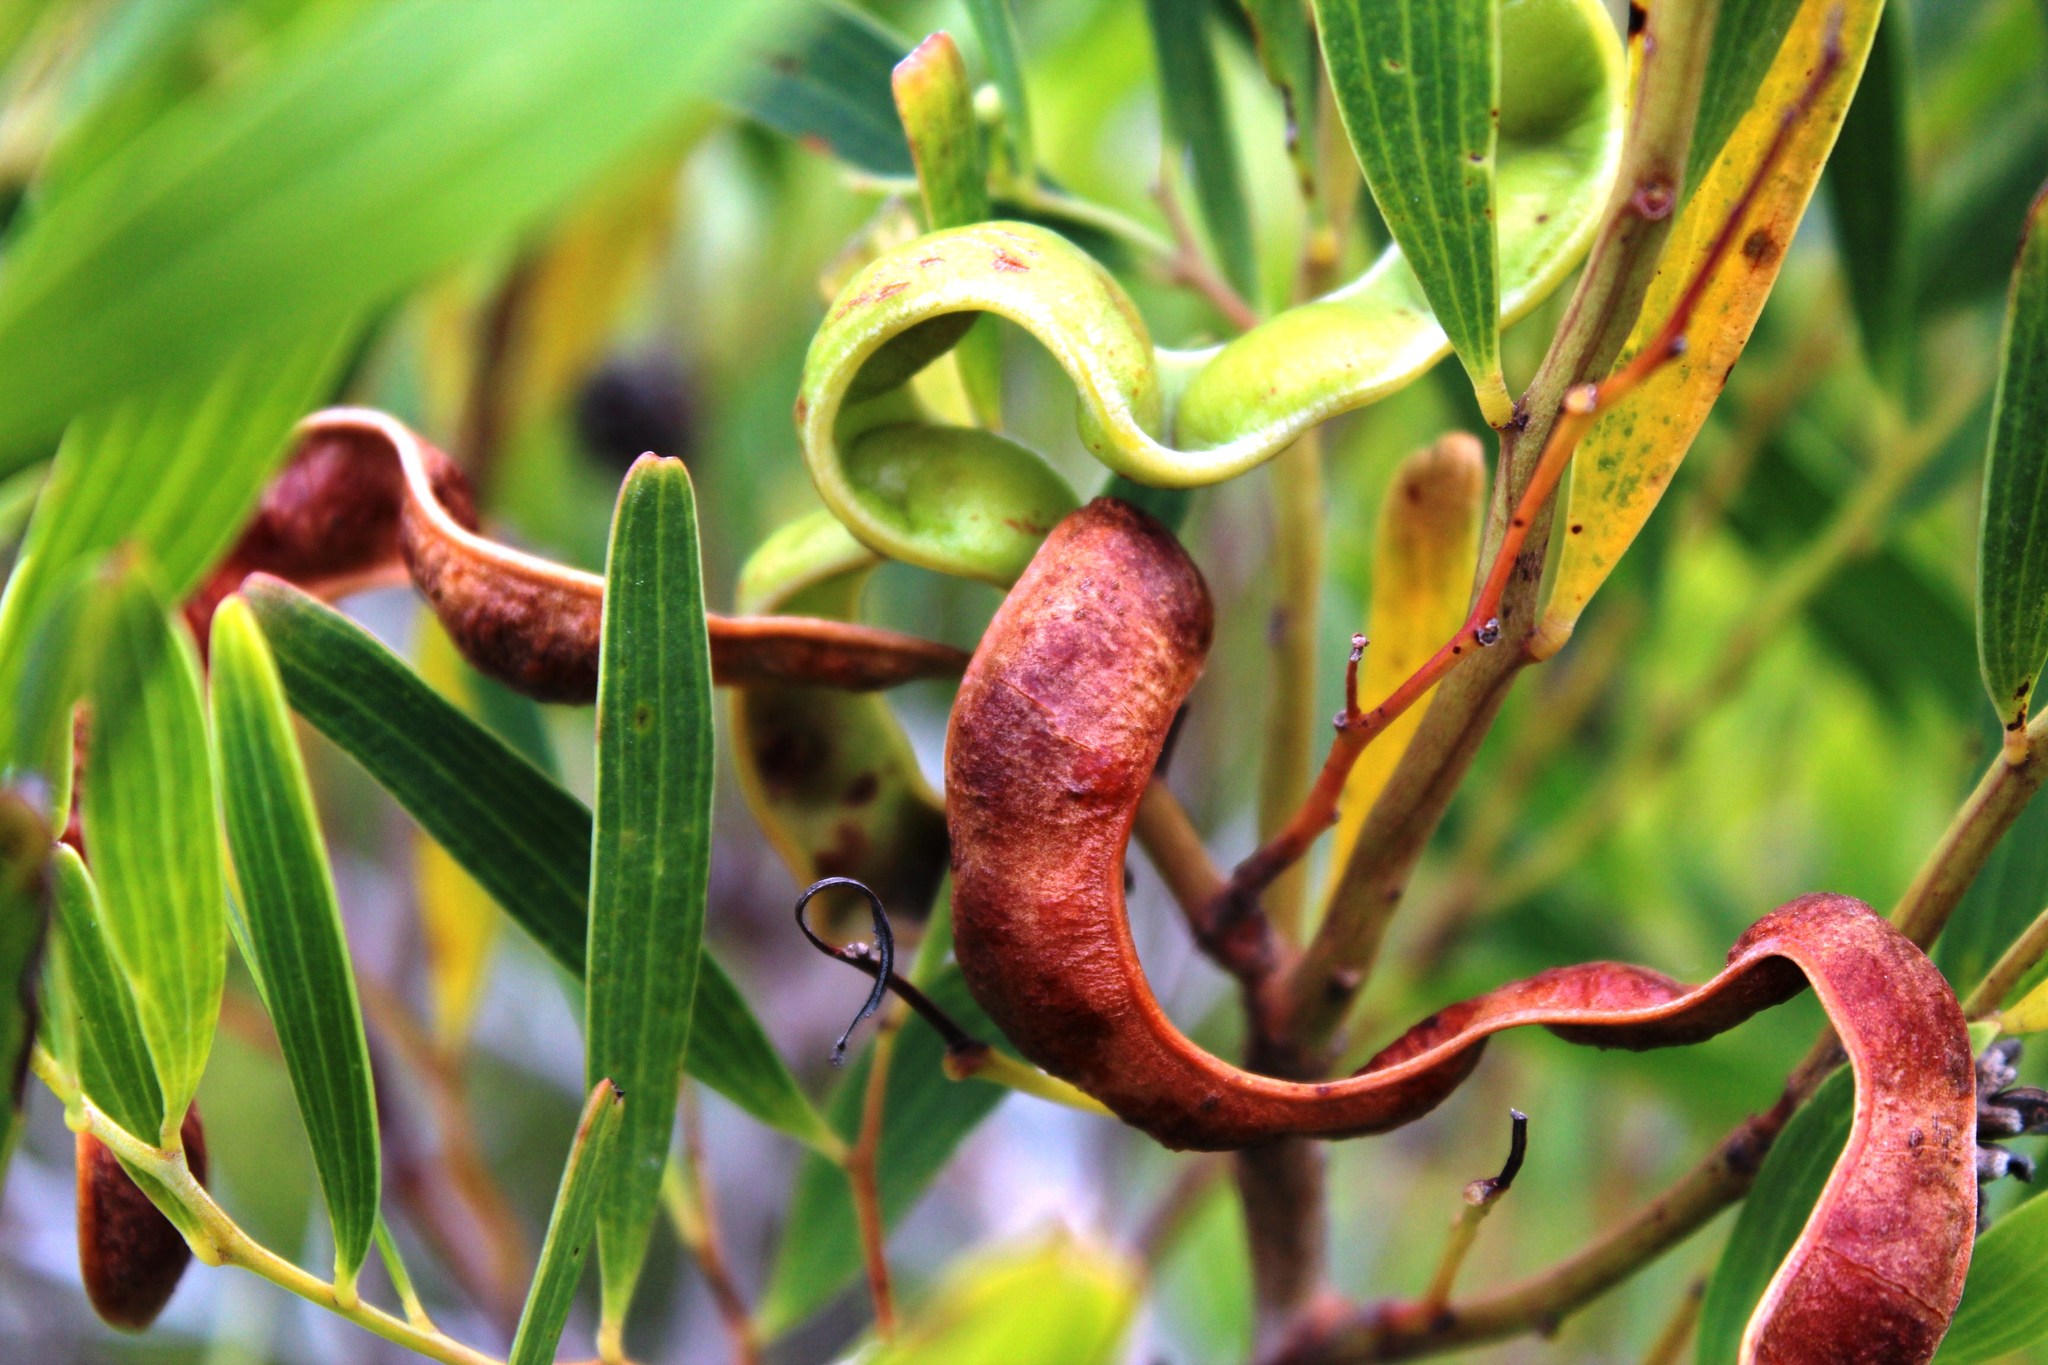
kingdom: Plantae
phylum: Tracheophyta
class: Magnoliopsida
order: Fabales
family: Fabaceae
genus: Acacia
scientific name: Acacia cyclops
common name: Coastal wattle
